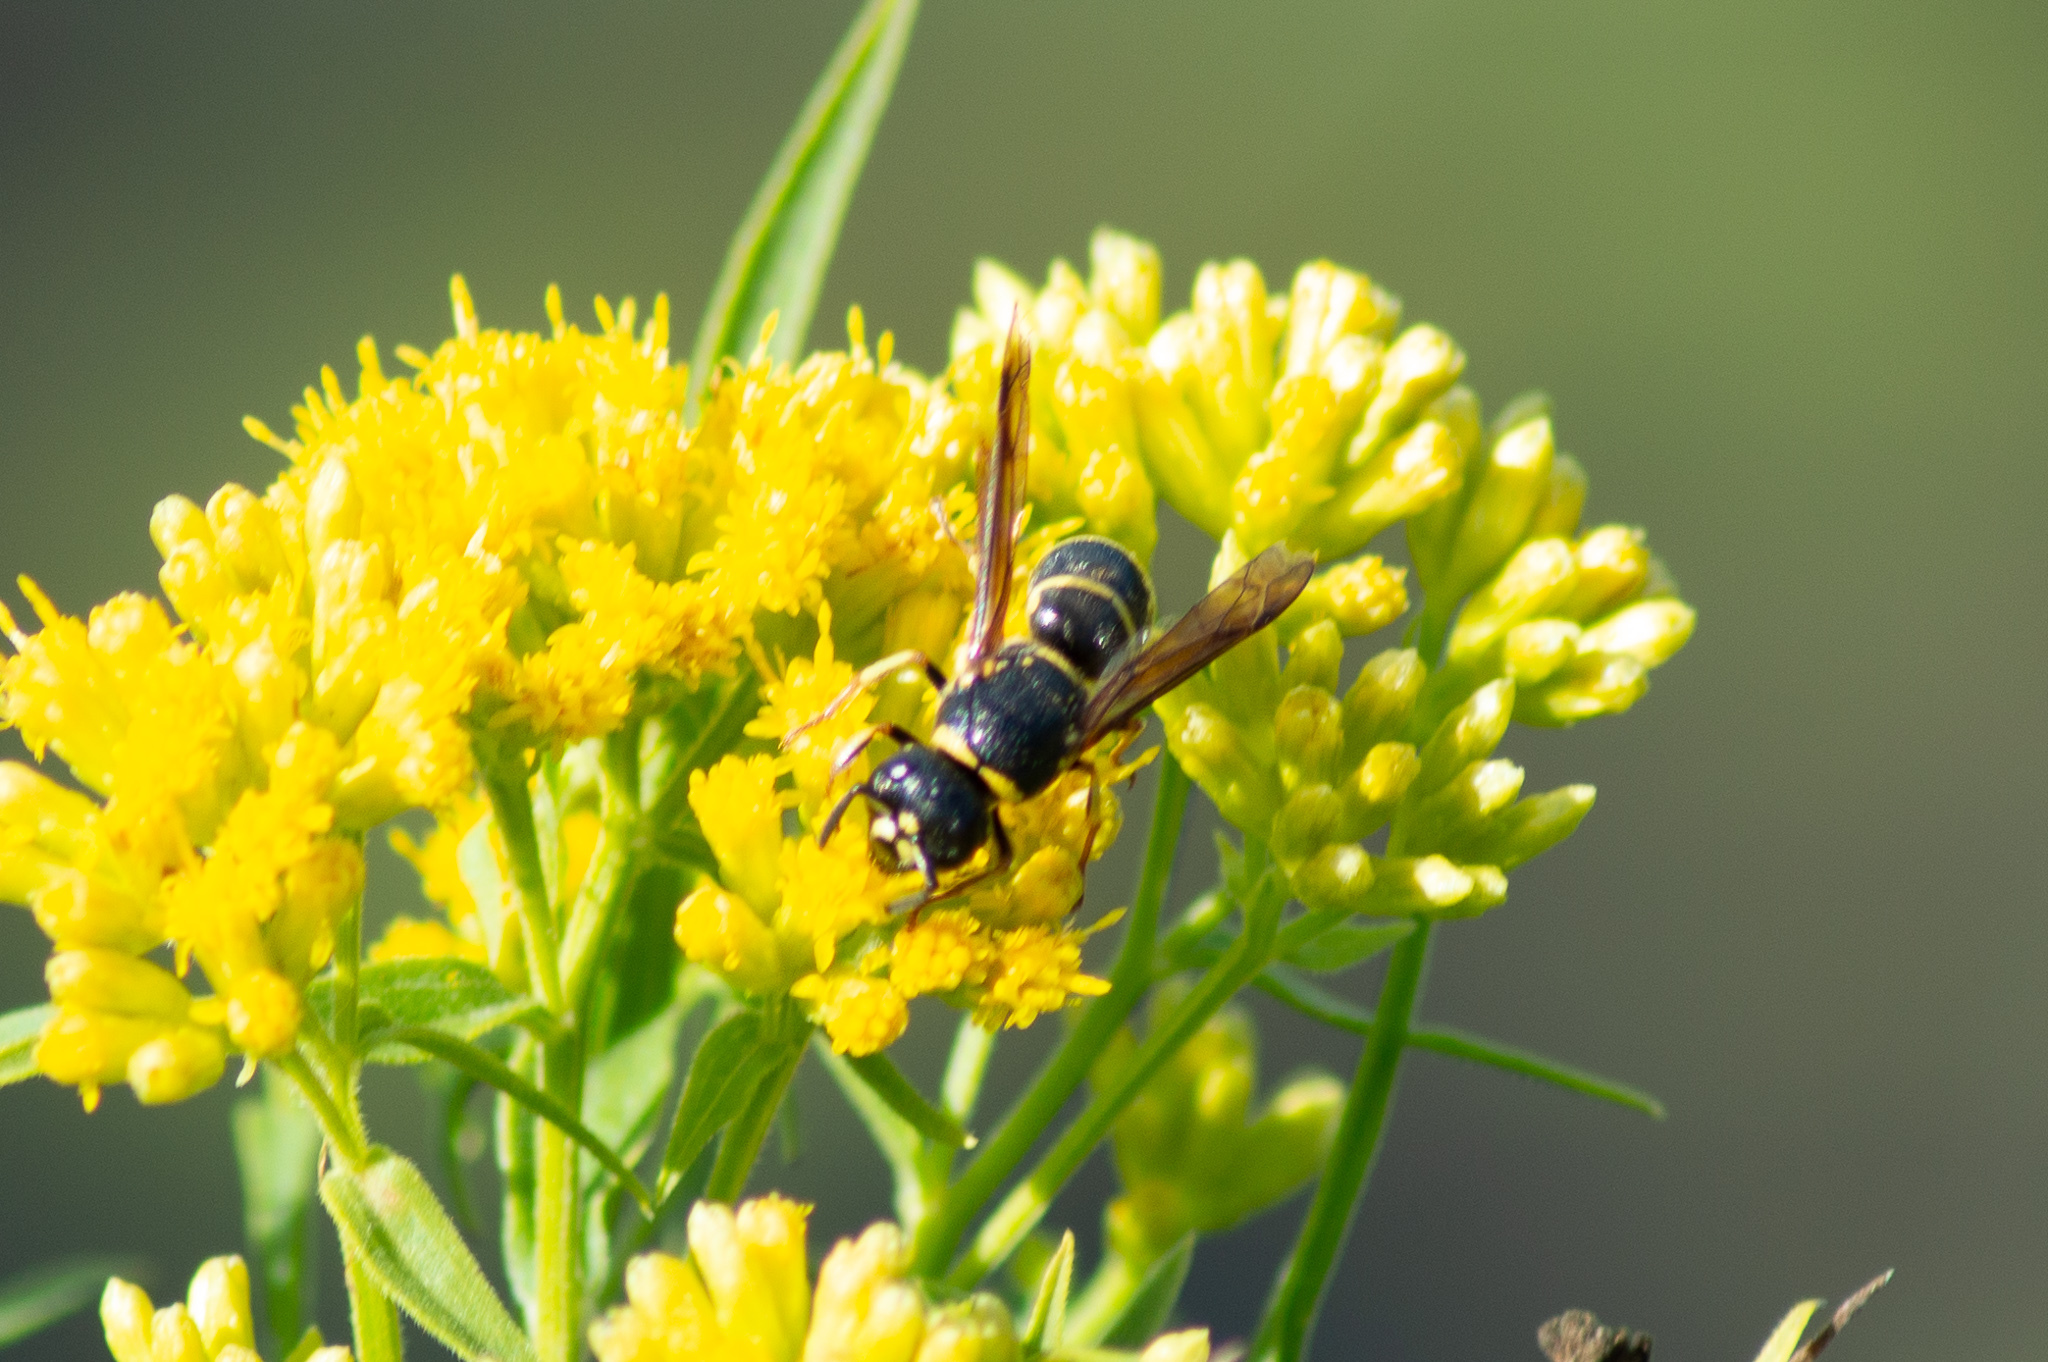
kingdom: Animalia
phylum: Arthropoda
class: Insecta
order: Hymenoptera
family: Eumenidae
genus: Euodynerus
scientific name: Euodynerus foraminatus
